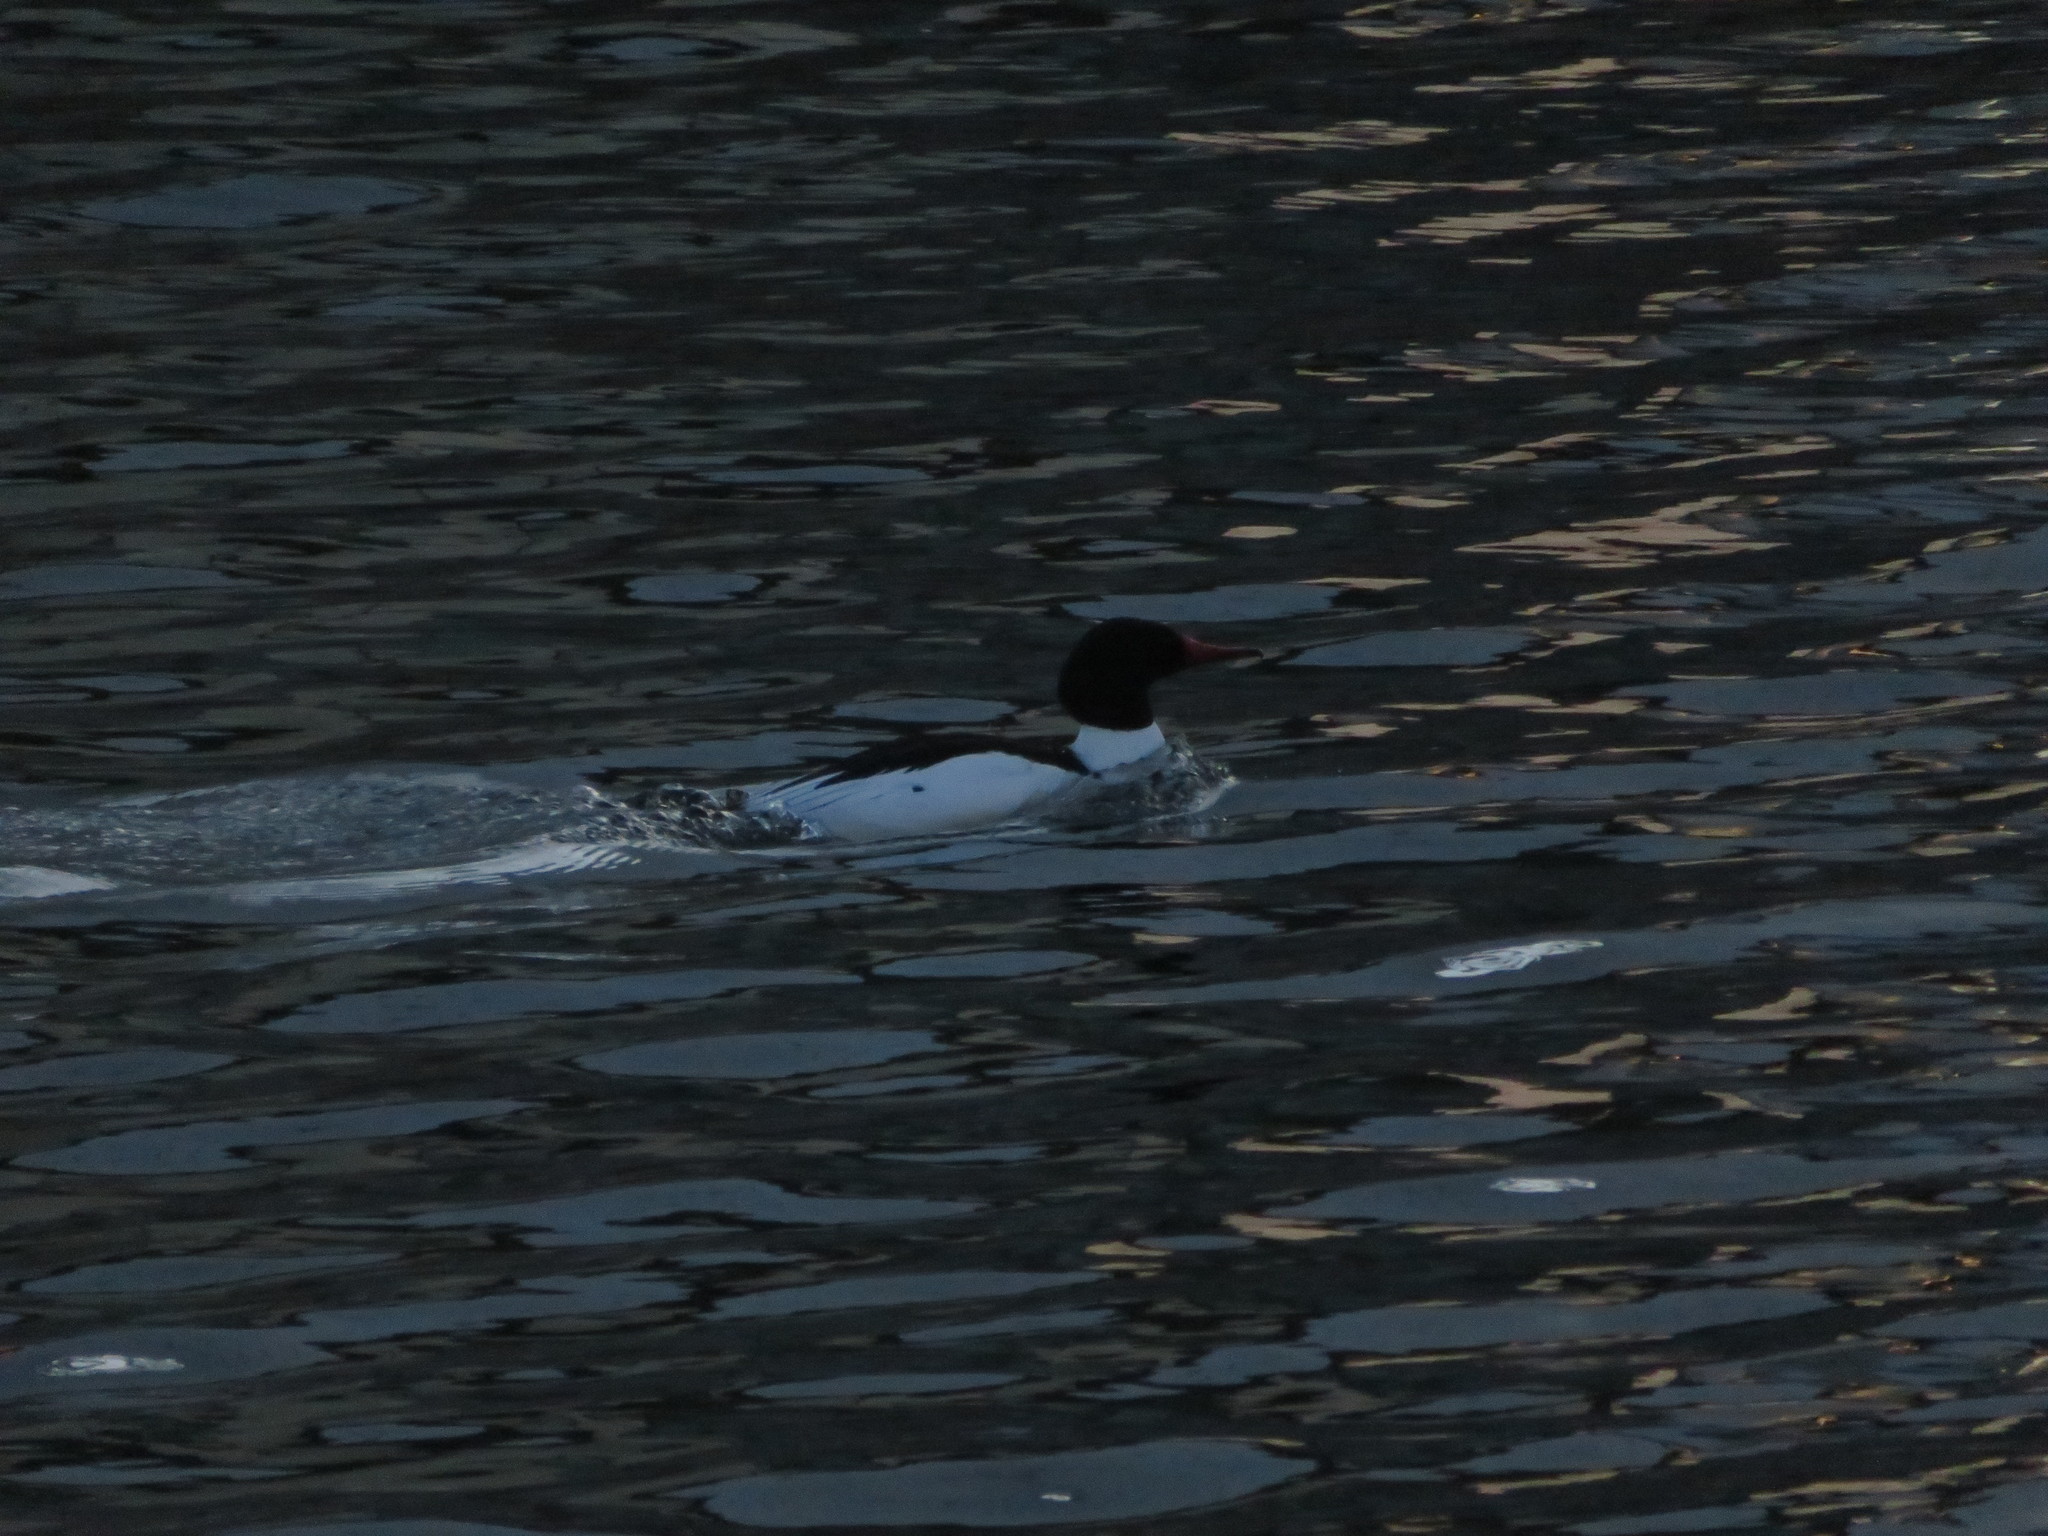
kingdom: Animalia
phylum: Chordata
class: Aves
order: Anseriformes
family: Anatidae
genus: Mergus
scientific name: Mergus merganser
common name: Common merganser
